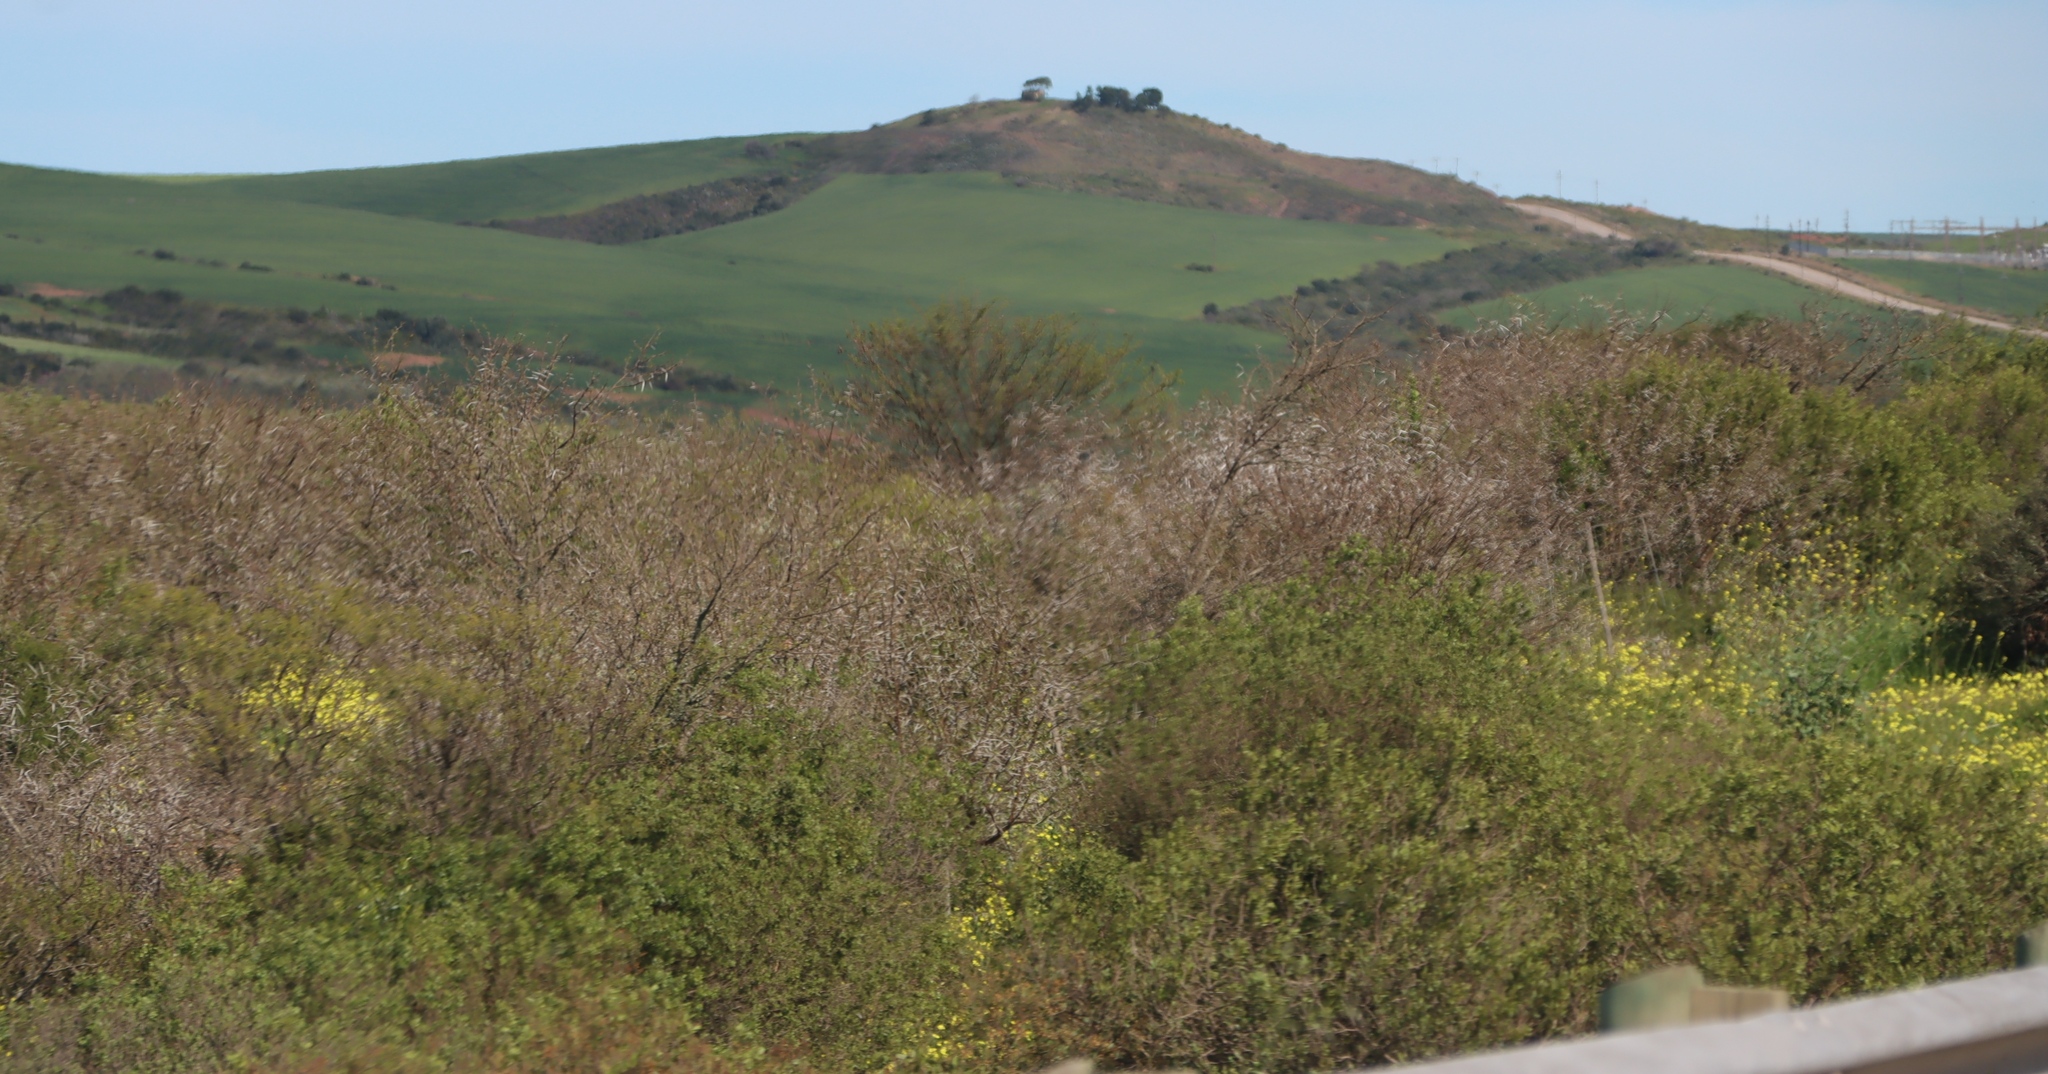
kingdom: Plantae
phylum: Tracheophyta
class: Magnoliopsida
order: Fabales
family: Fabaceae
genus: Vachellia
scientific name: Vachellia karroo
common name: Sweet thorn
